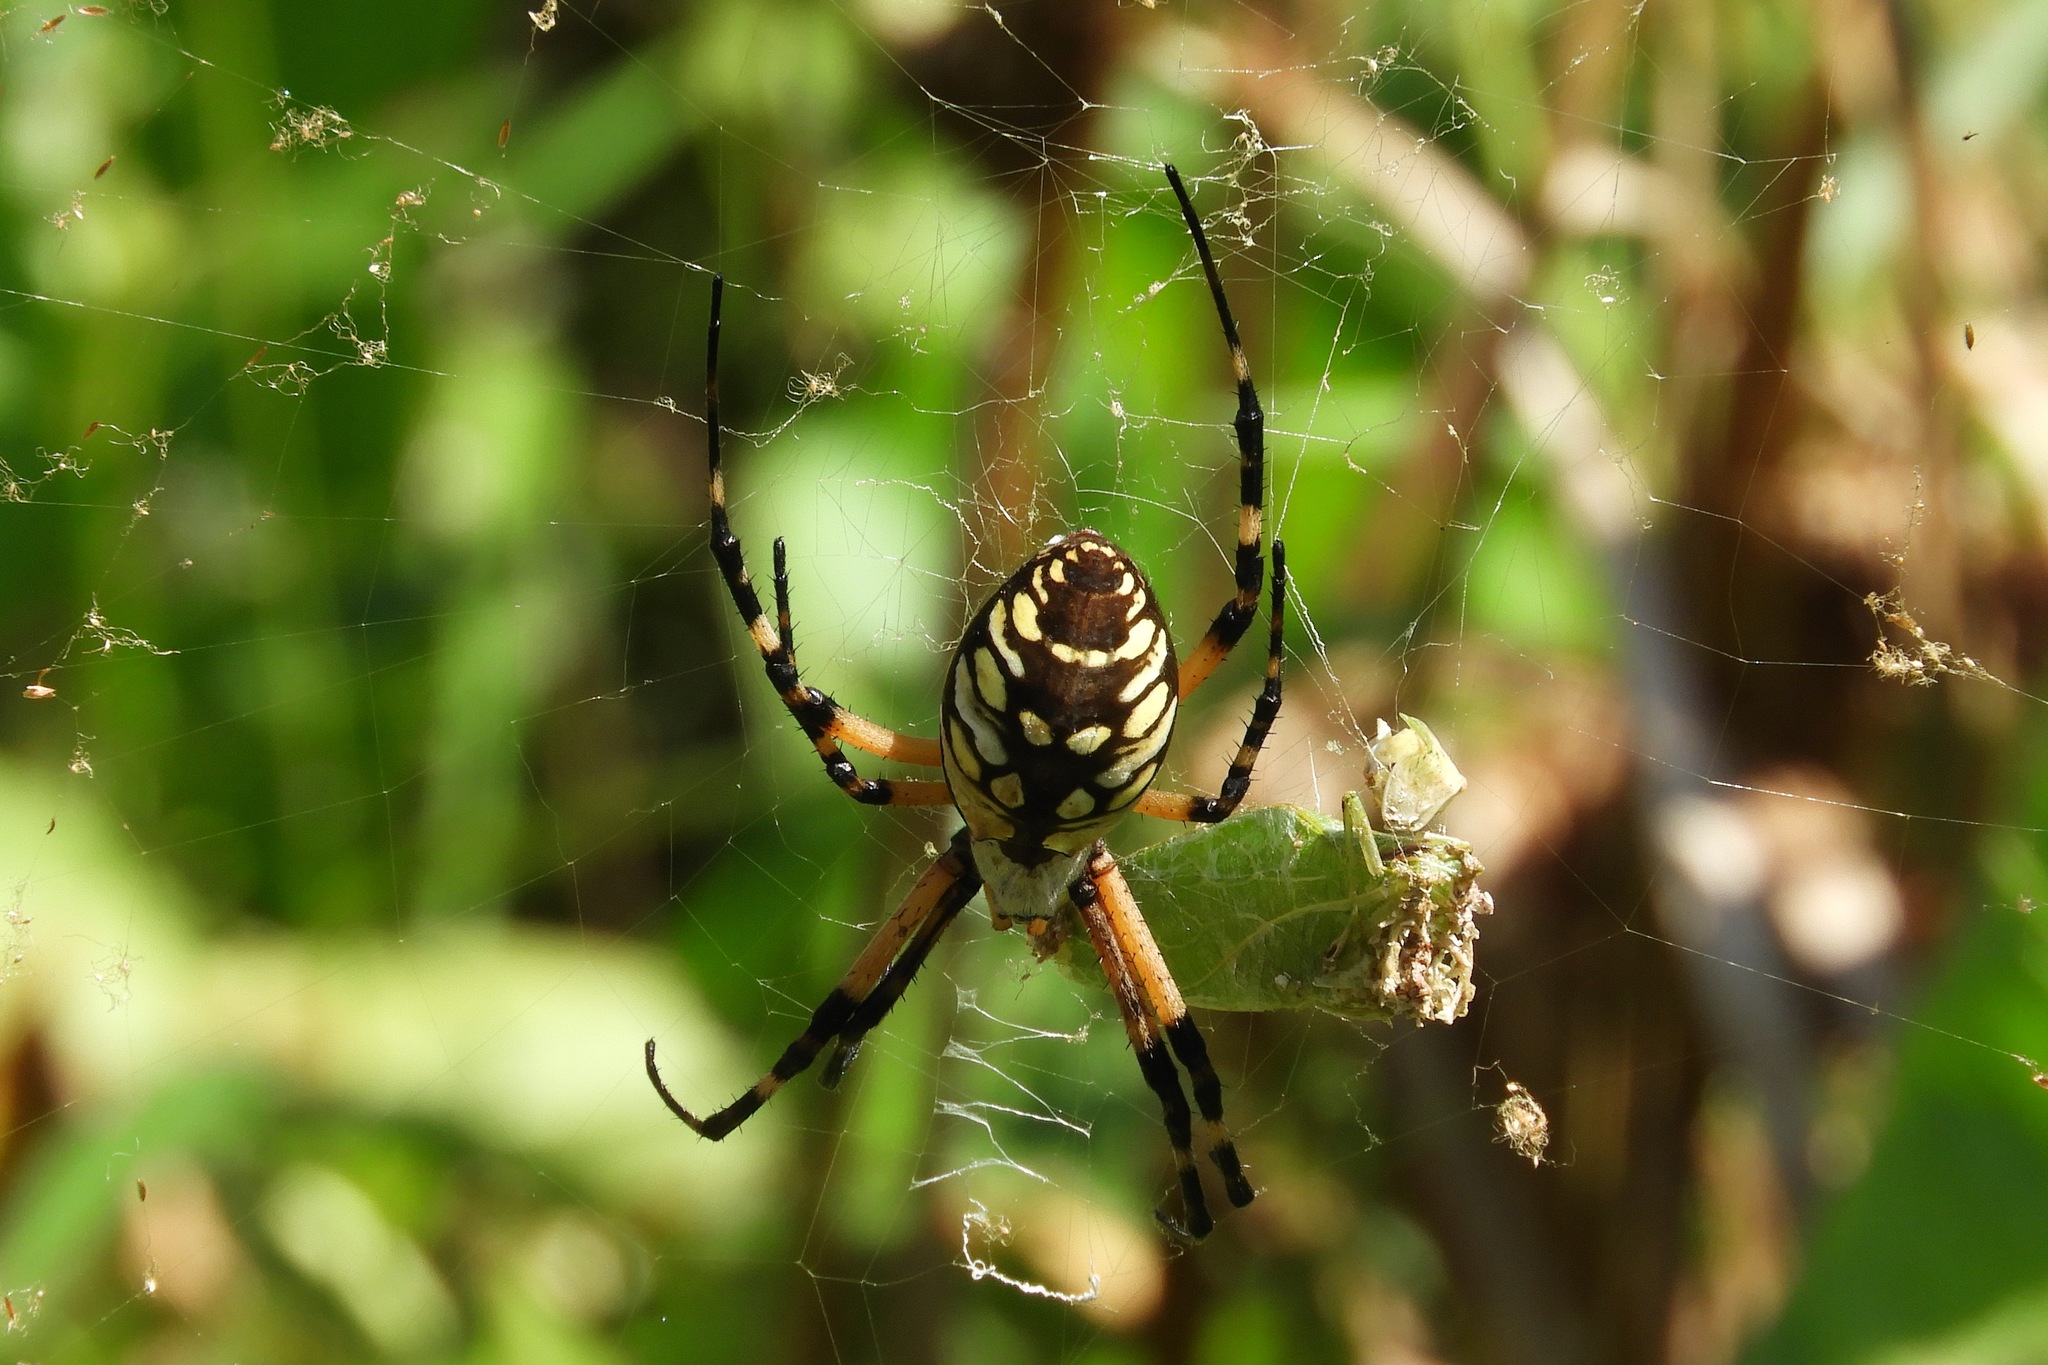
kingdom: Animalia
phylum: Arthropoda
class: Arachnida
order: Araneae
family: Araneidae
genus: Argiope
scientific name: Argiope aurantia
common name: Orb weavers
